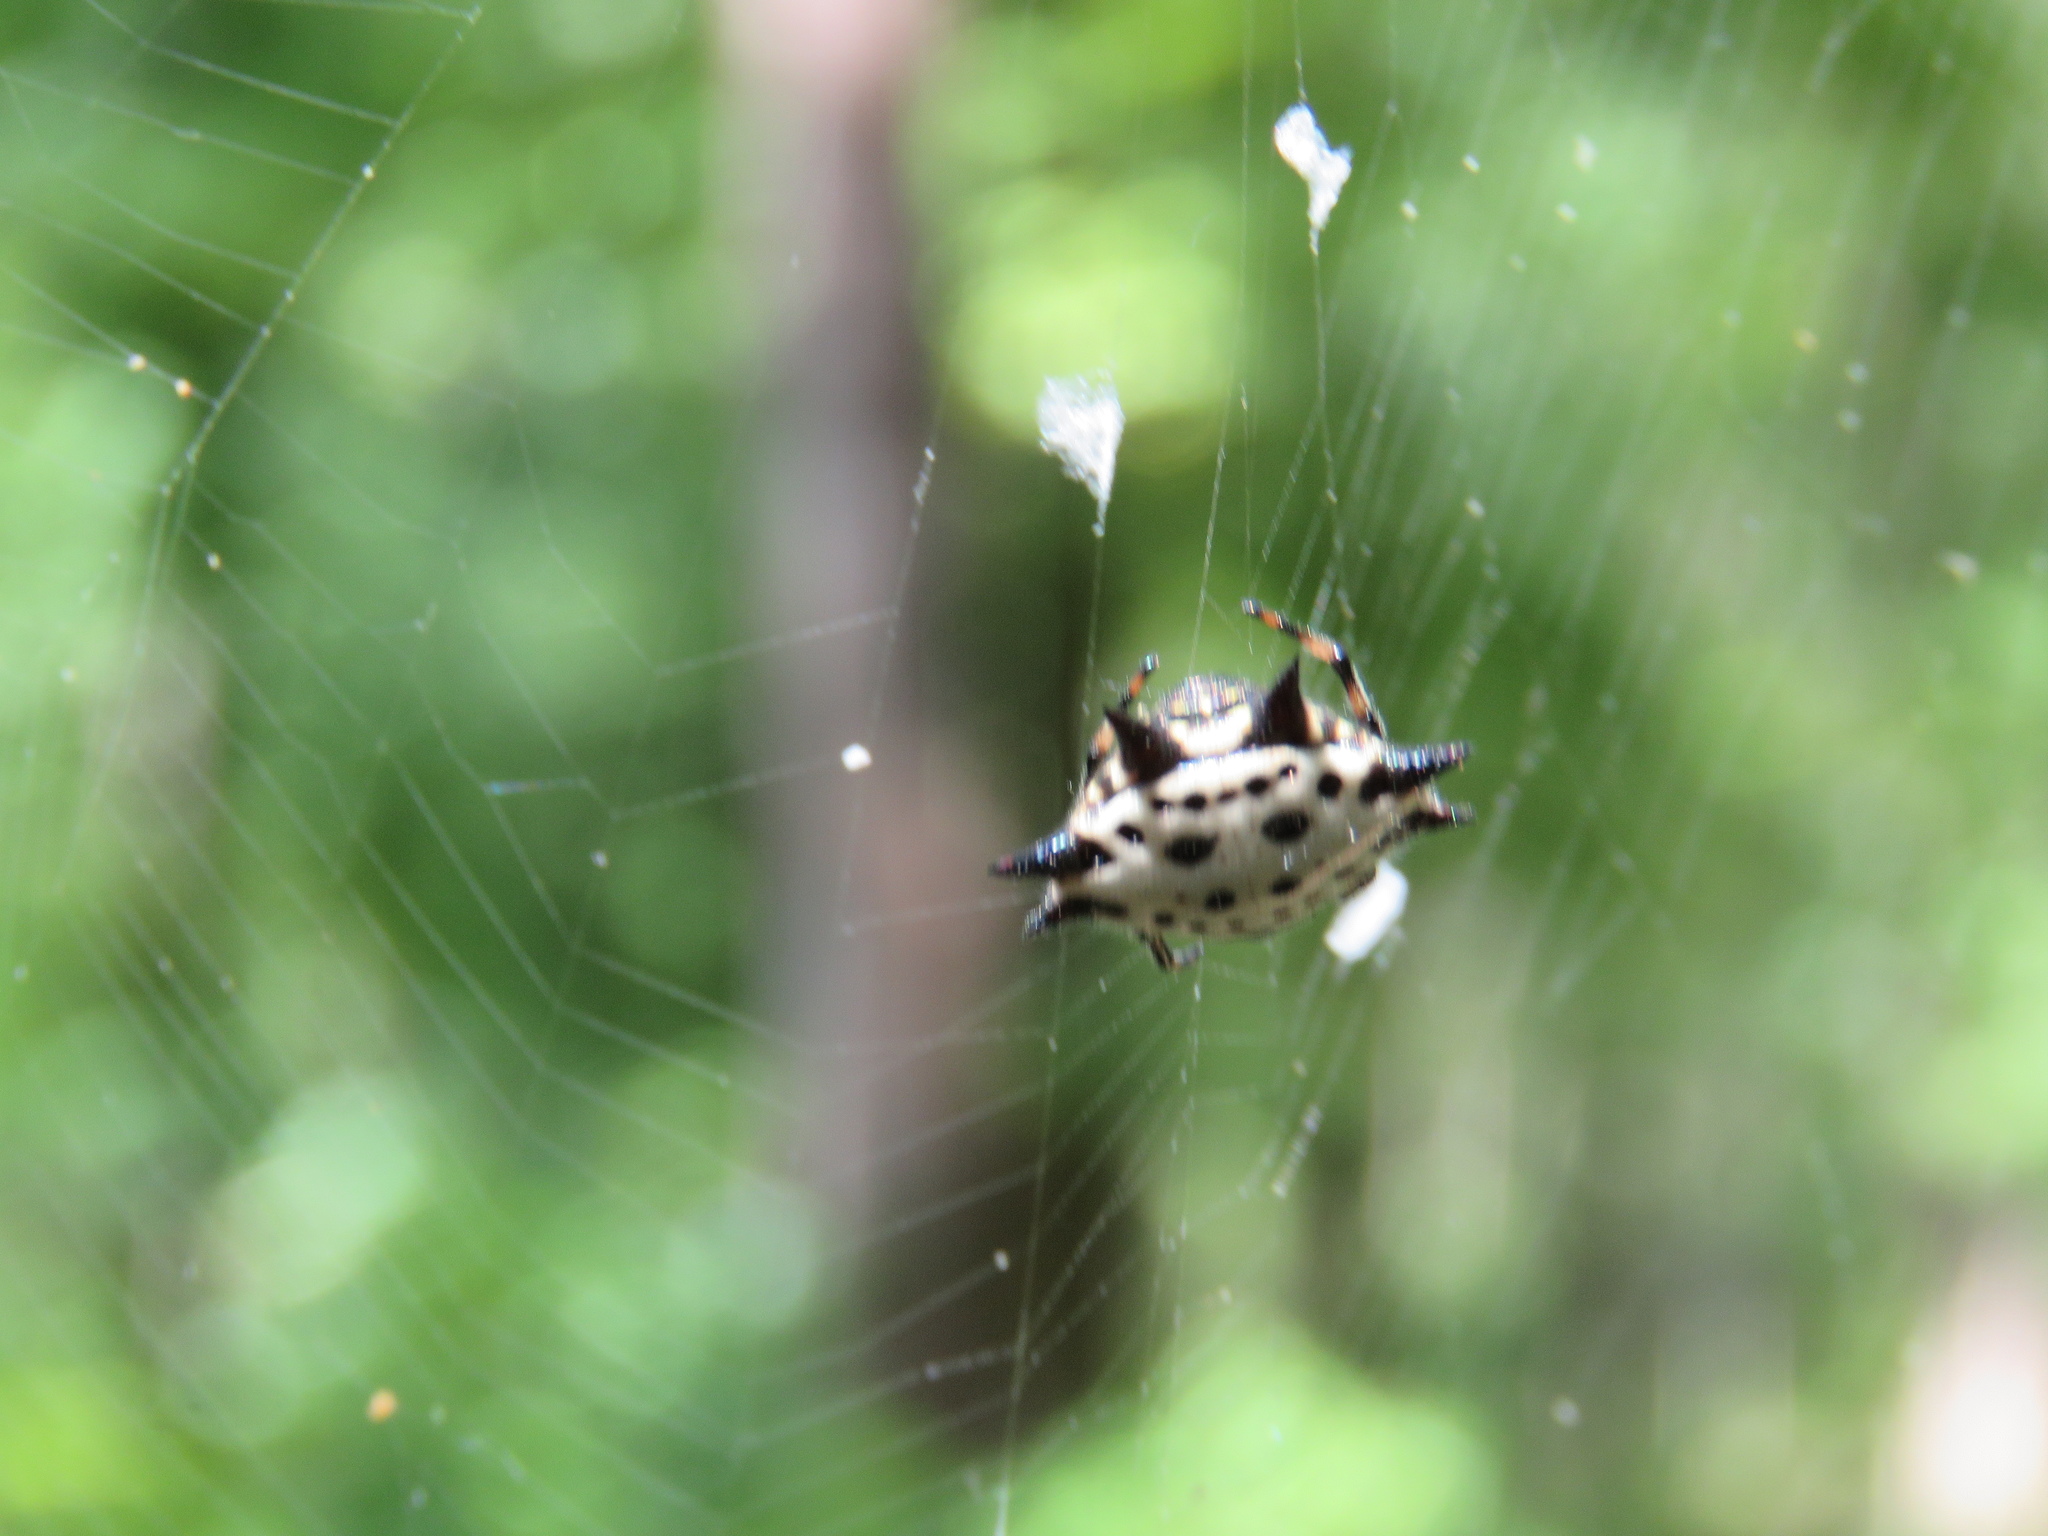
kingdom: Animalia
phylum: Arthropoda
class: Arachnida
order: Araneae
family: Araneidae
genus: Gasteracantha
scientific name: Gasteracantha cancriformis
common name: Orb weavers
